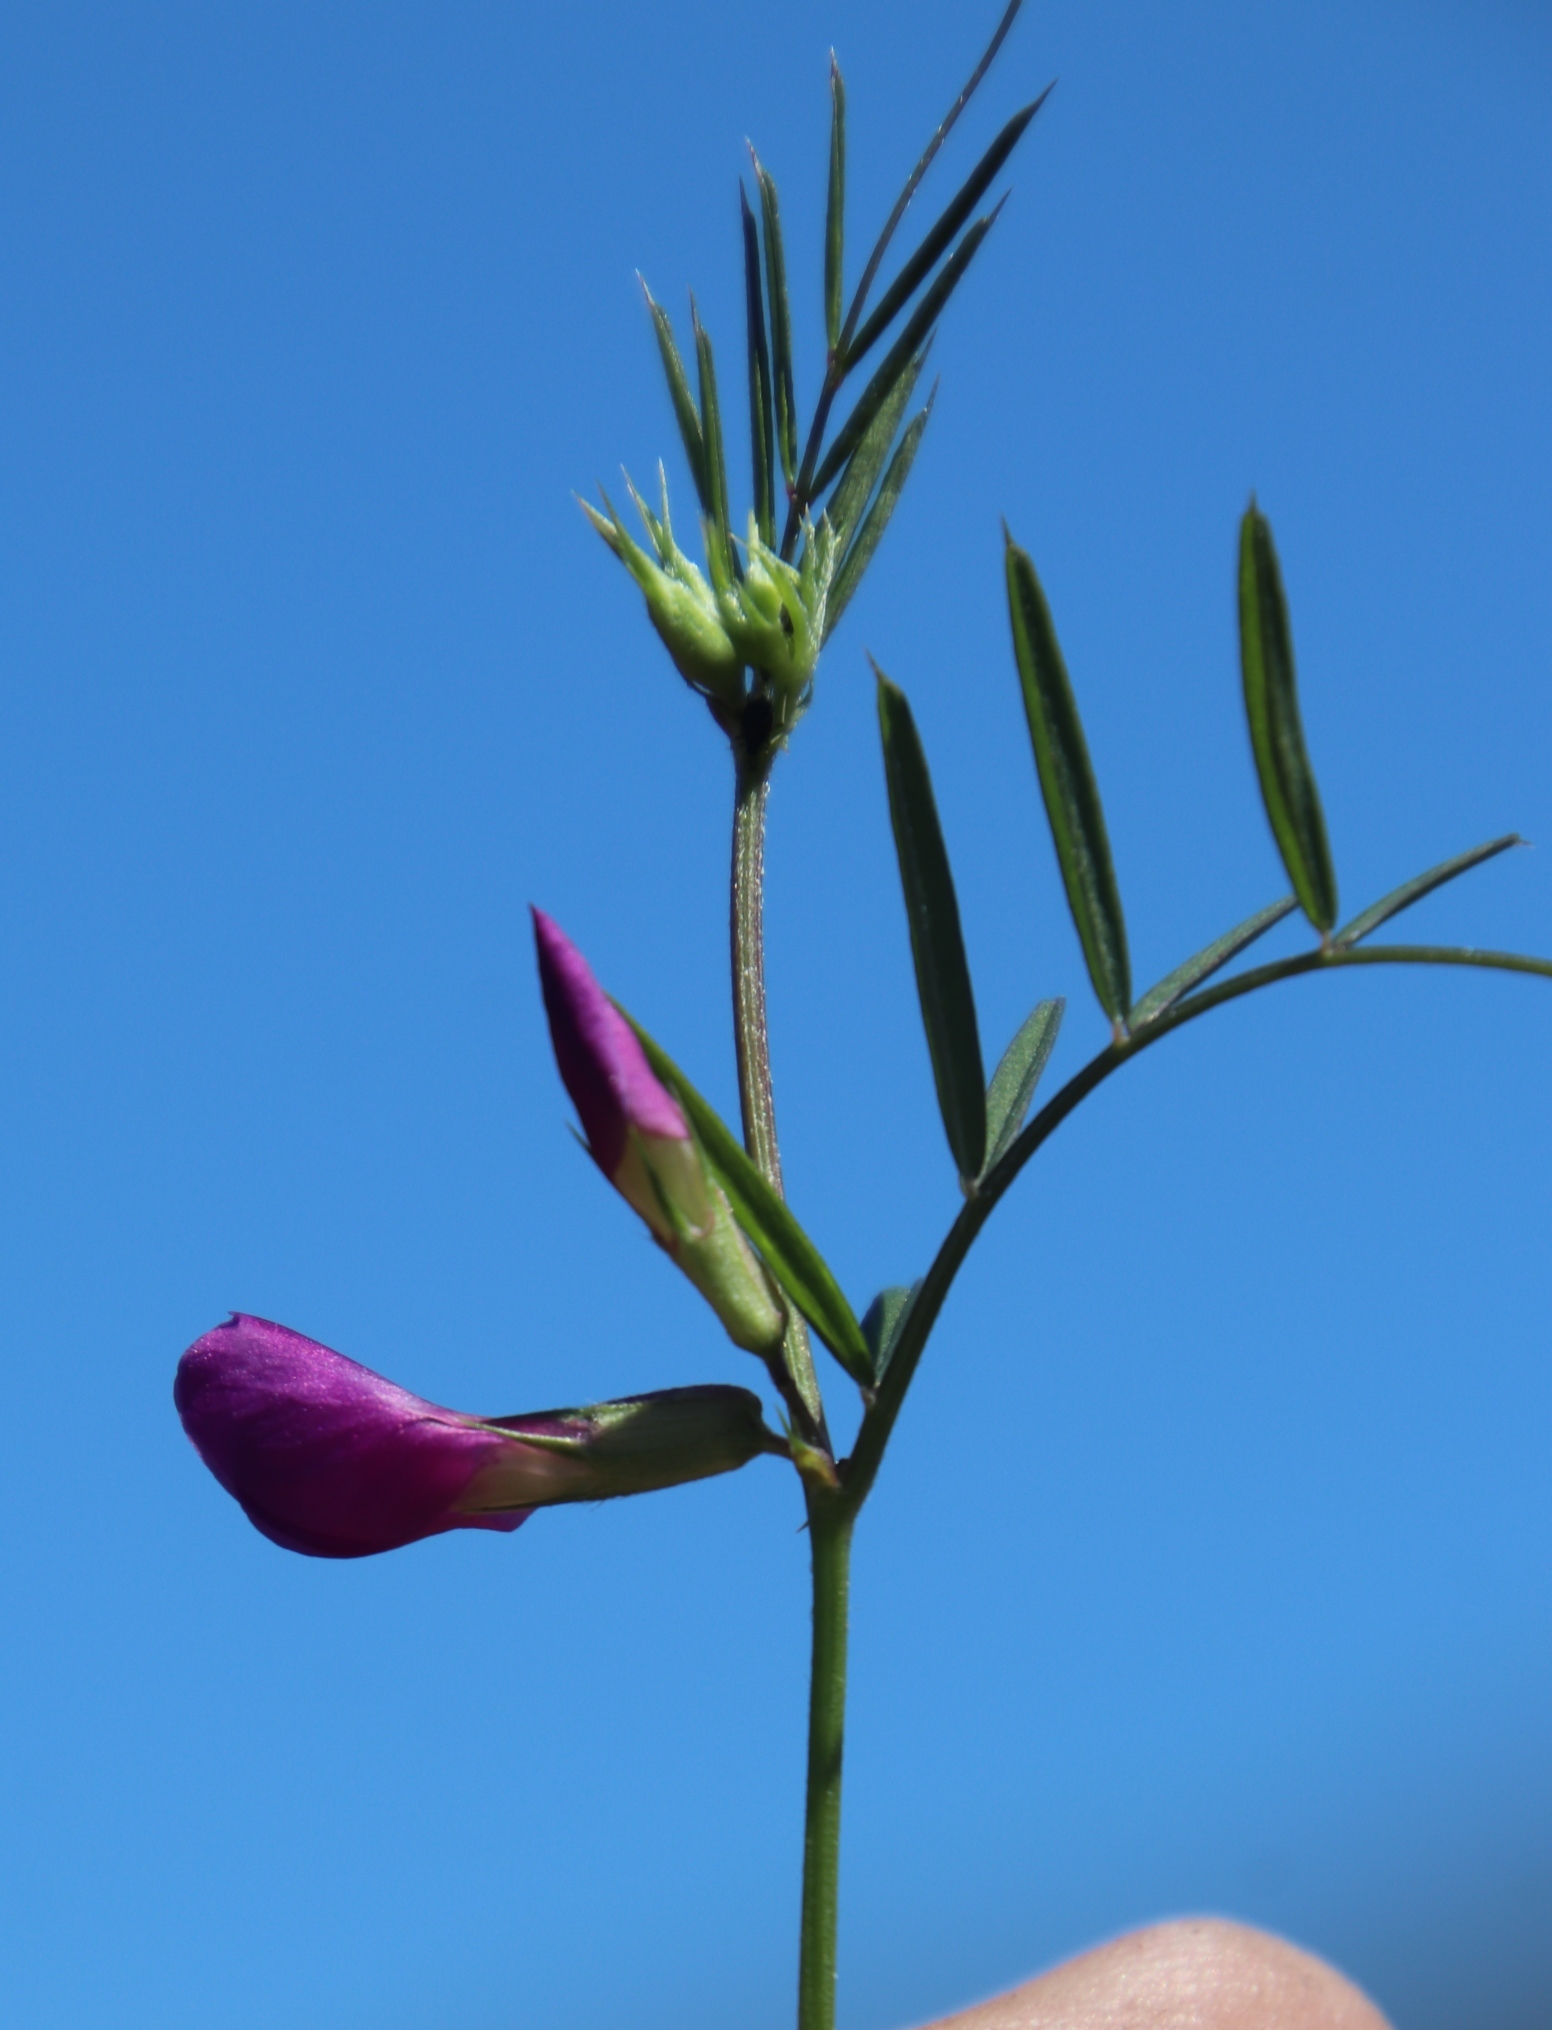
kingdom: Plantae
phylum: Tracheophyta
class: Magnoliopsida
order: Fabales
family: Fabaceae
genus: Vicia
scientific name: Vicia sativa
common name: Garden vetch
